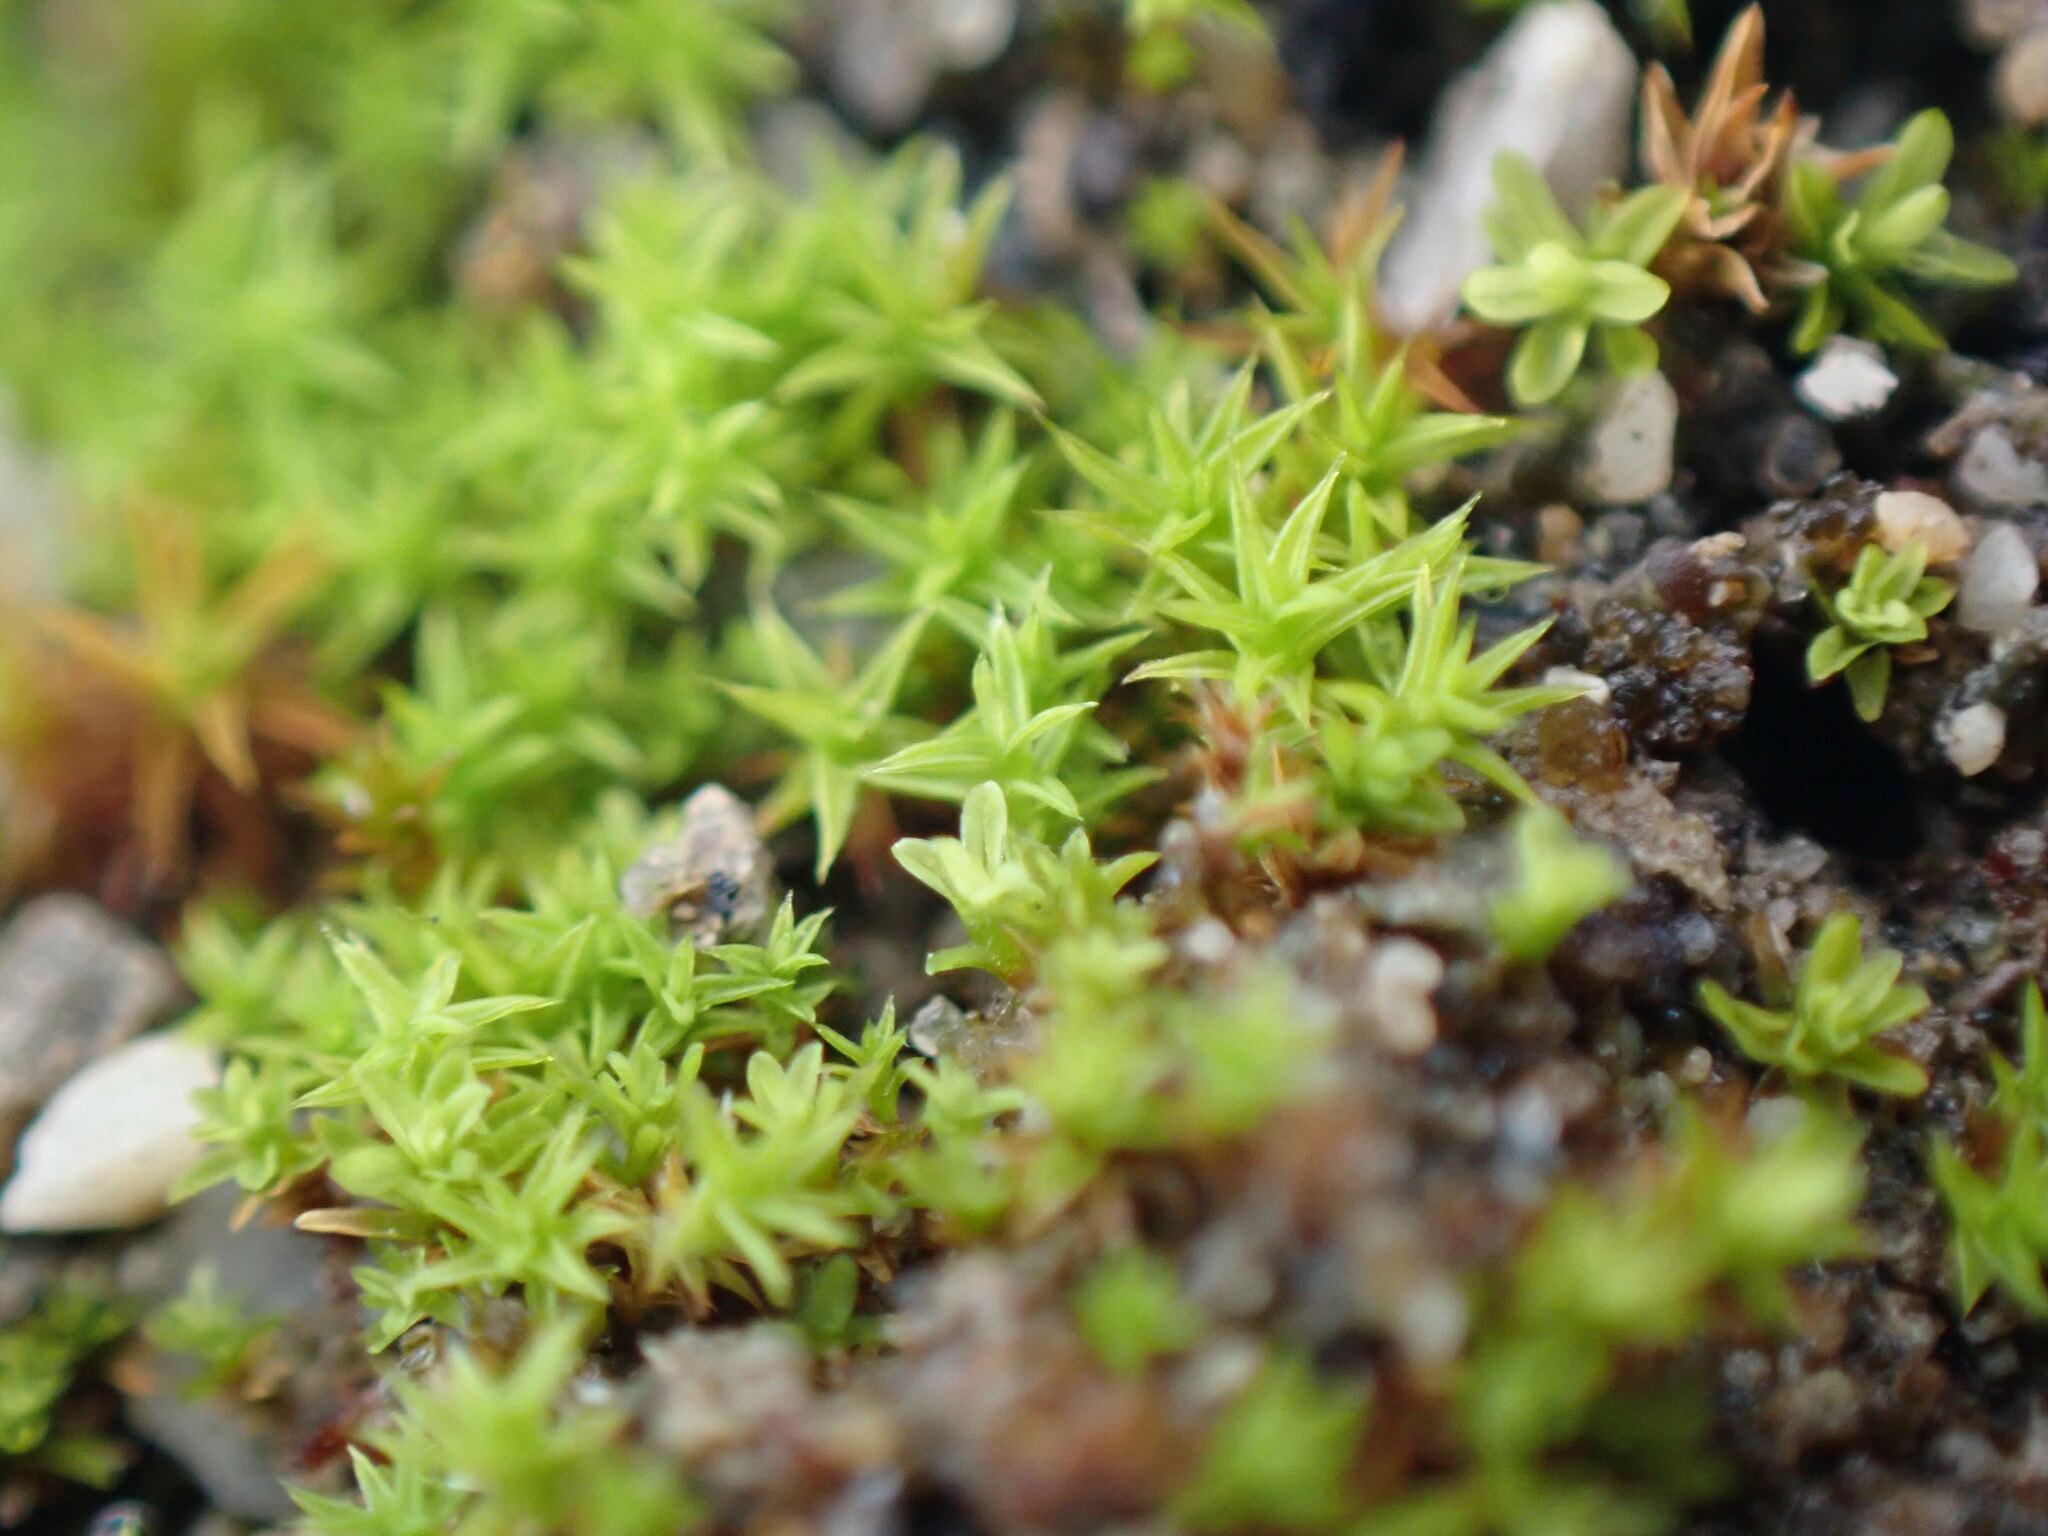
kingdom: Plantae
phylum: Bryophyta
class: Bryopsida
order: Pottiales
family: Pottiaceae
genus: Pseudocrossidium
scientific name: Pseudocrossidium hornschuchianum
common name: Hornschuch's beard-moss
